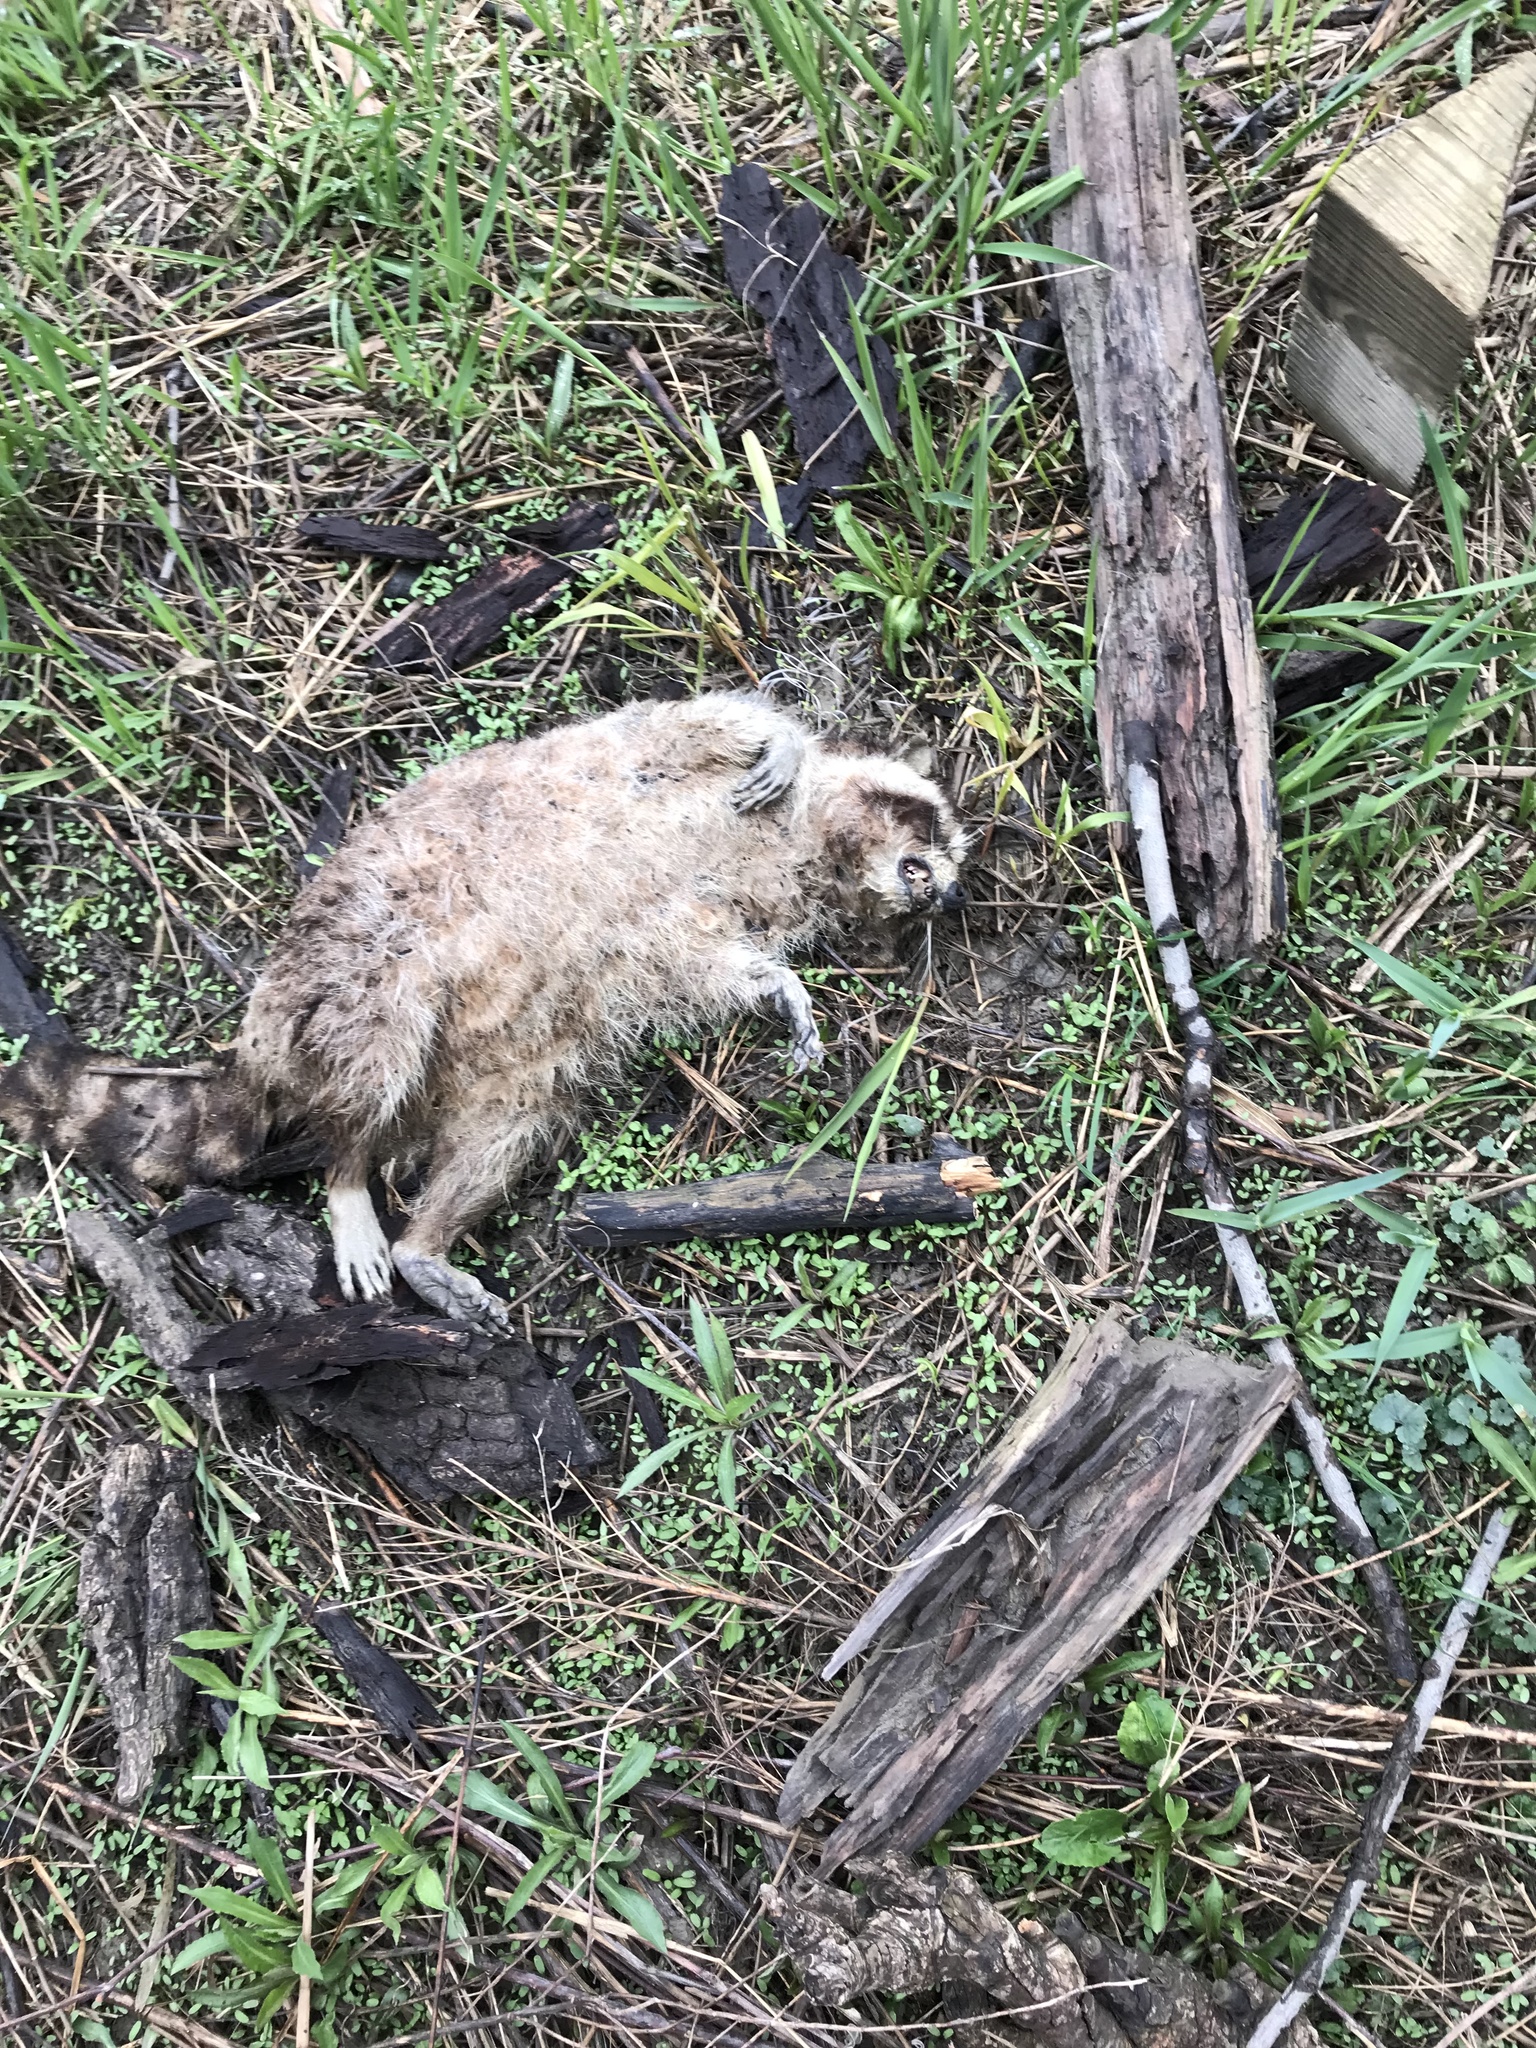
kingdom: Animalia
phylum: Chordata
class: Mammalia
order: Carnivora
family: Procyonidae
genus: Procyon
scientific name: Procyon lotor
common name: Raccoon
